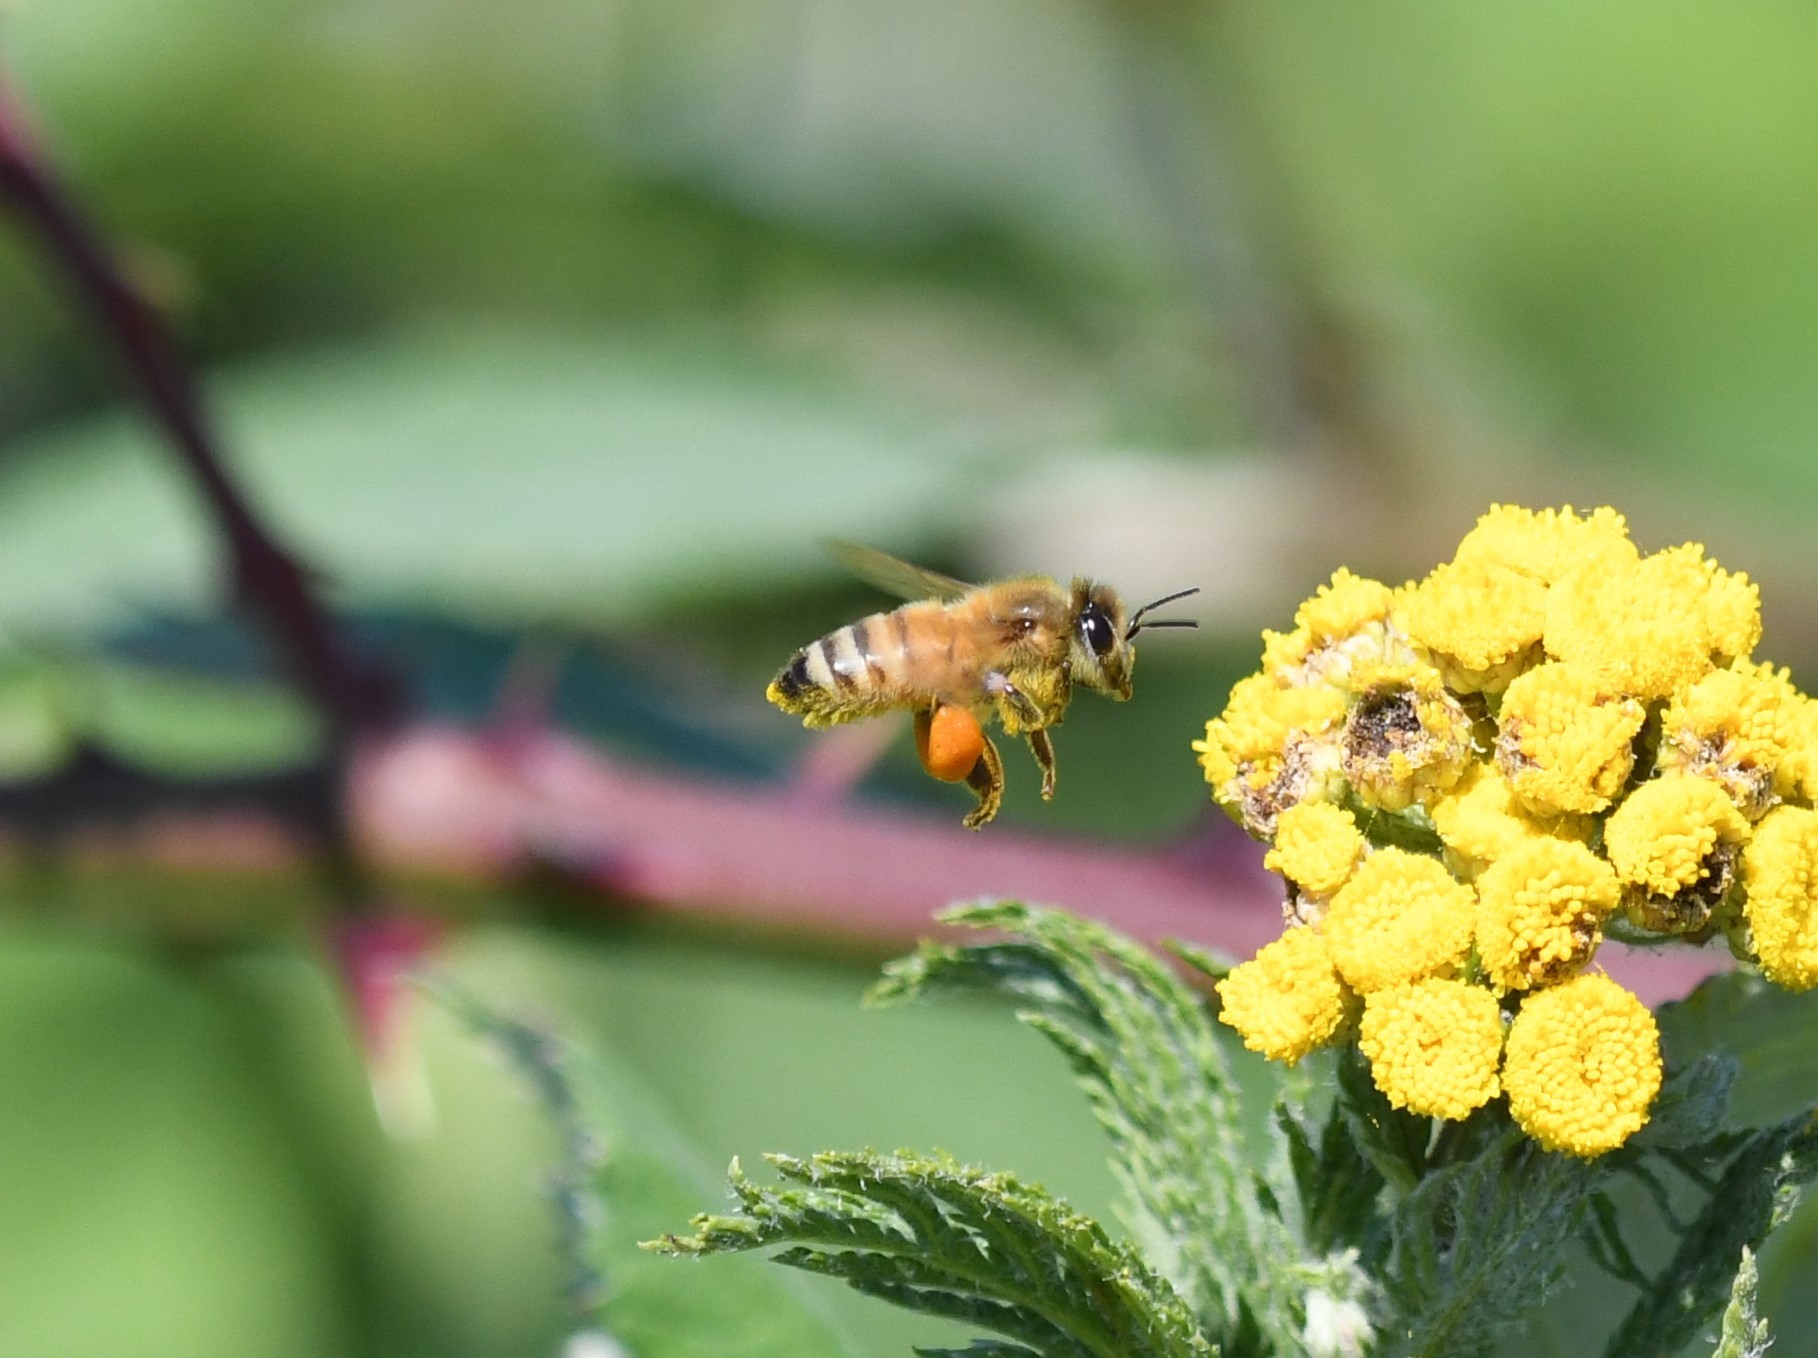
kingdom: Animalia
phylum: Arthropoda
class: Insecta
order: Hymenoptera
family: Apidae
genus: Apis
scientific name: Apis mellifera
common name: Honey bee
